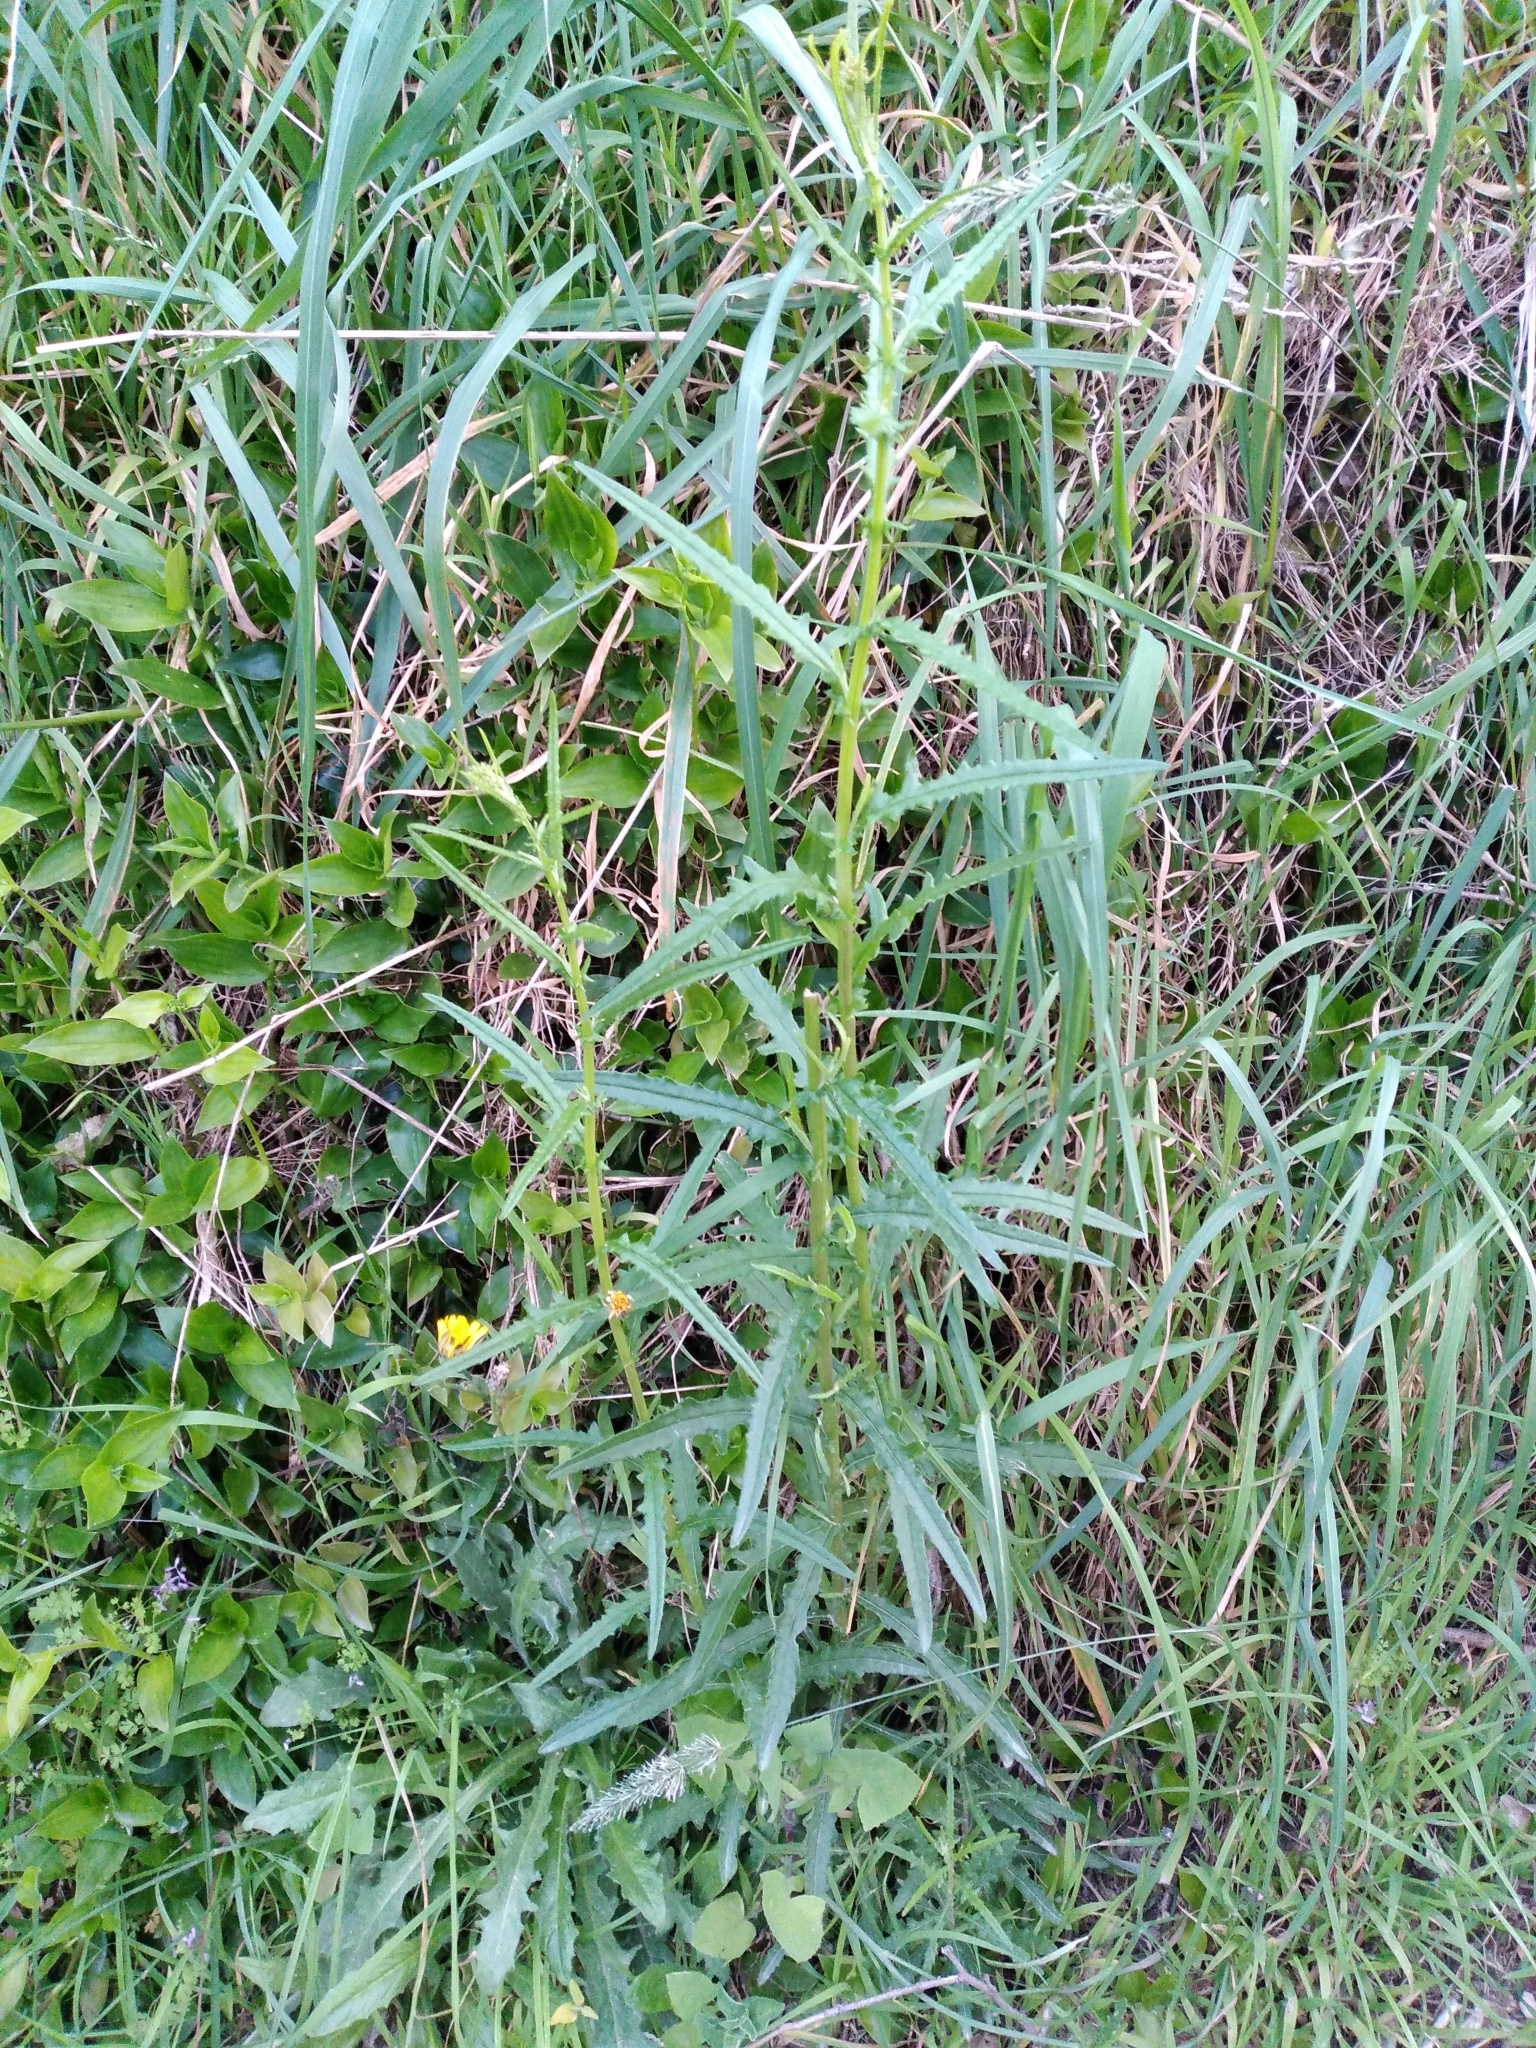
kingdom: Plantae
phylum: Tracheophyta
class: Magnoliopsida
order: Asterales
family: Asteraceae
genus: Senecio
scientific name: Senecio hispidulus
